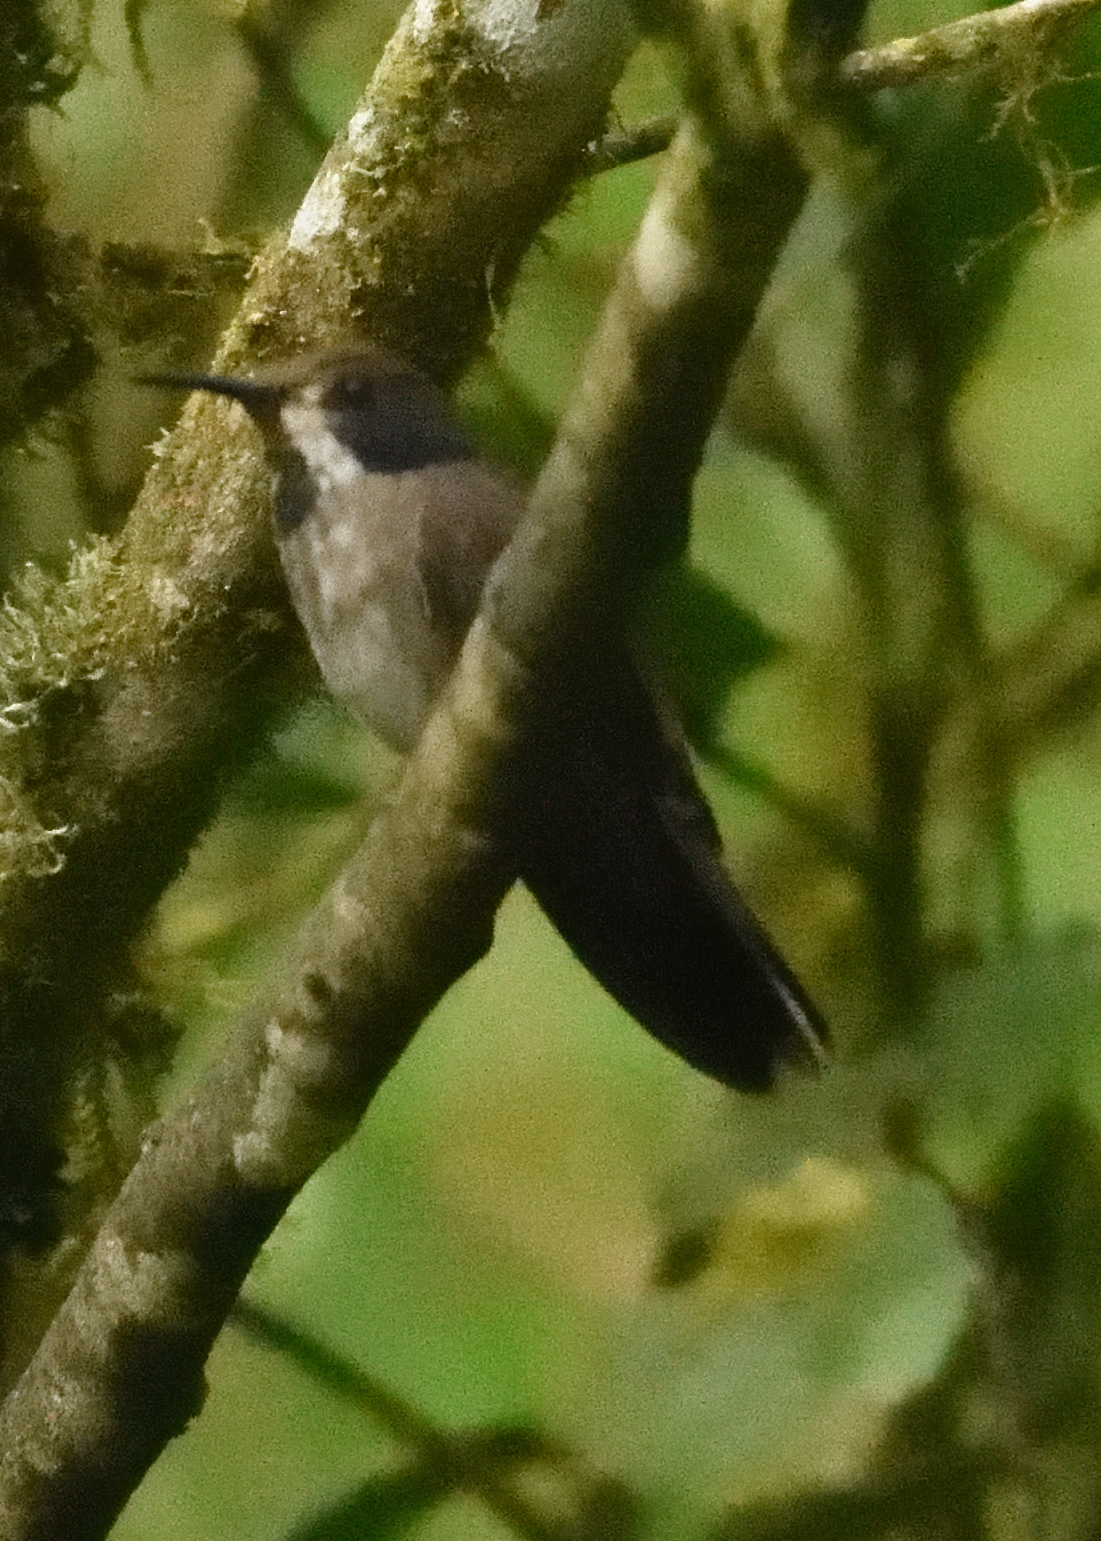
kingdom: Animalia
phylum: Chordata
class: Aves
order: Apodiformes
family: Trochilidae
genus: Colibri
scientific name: Colibri delphinae
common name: Brown violetear
